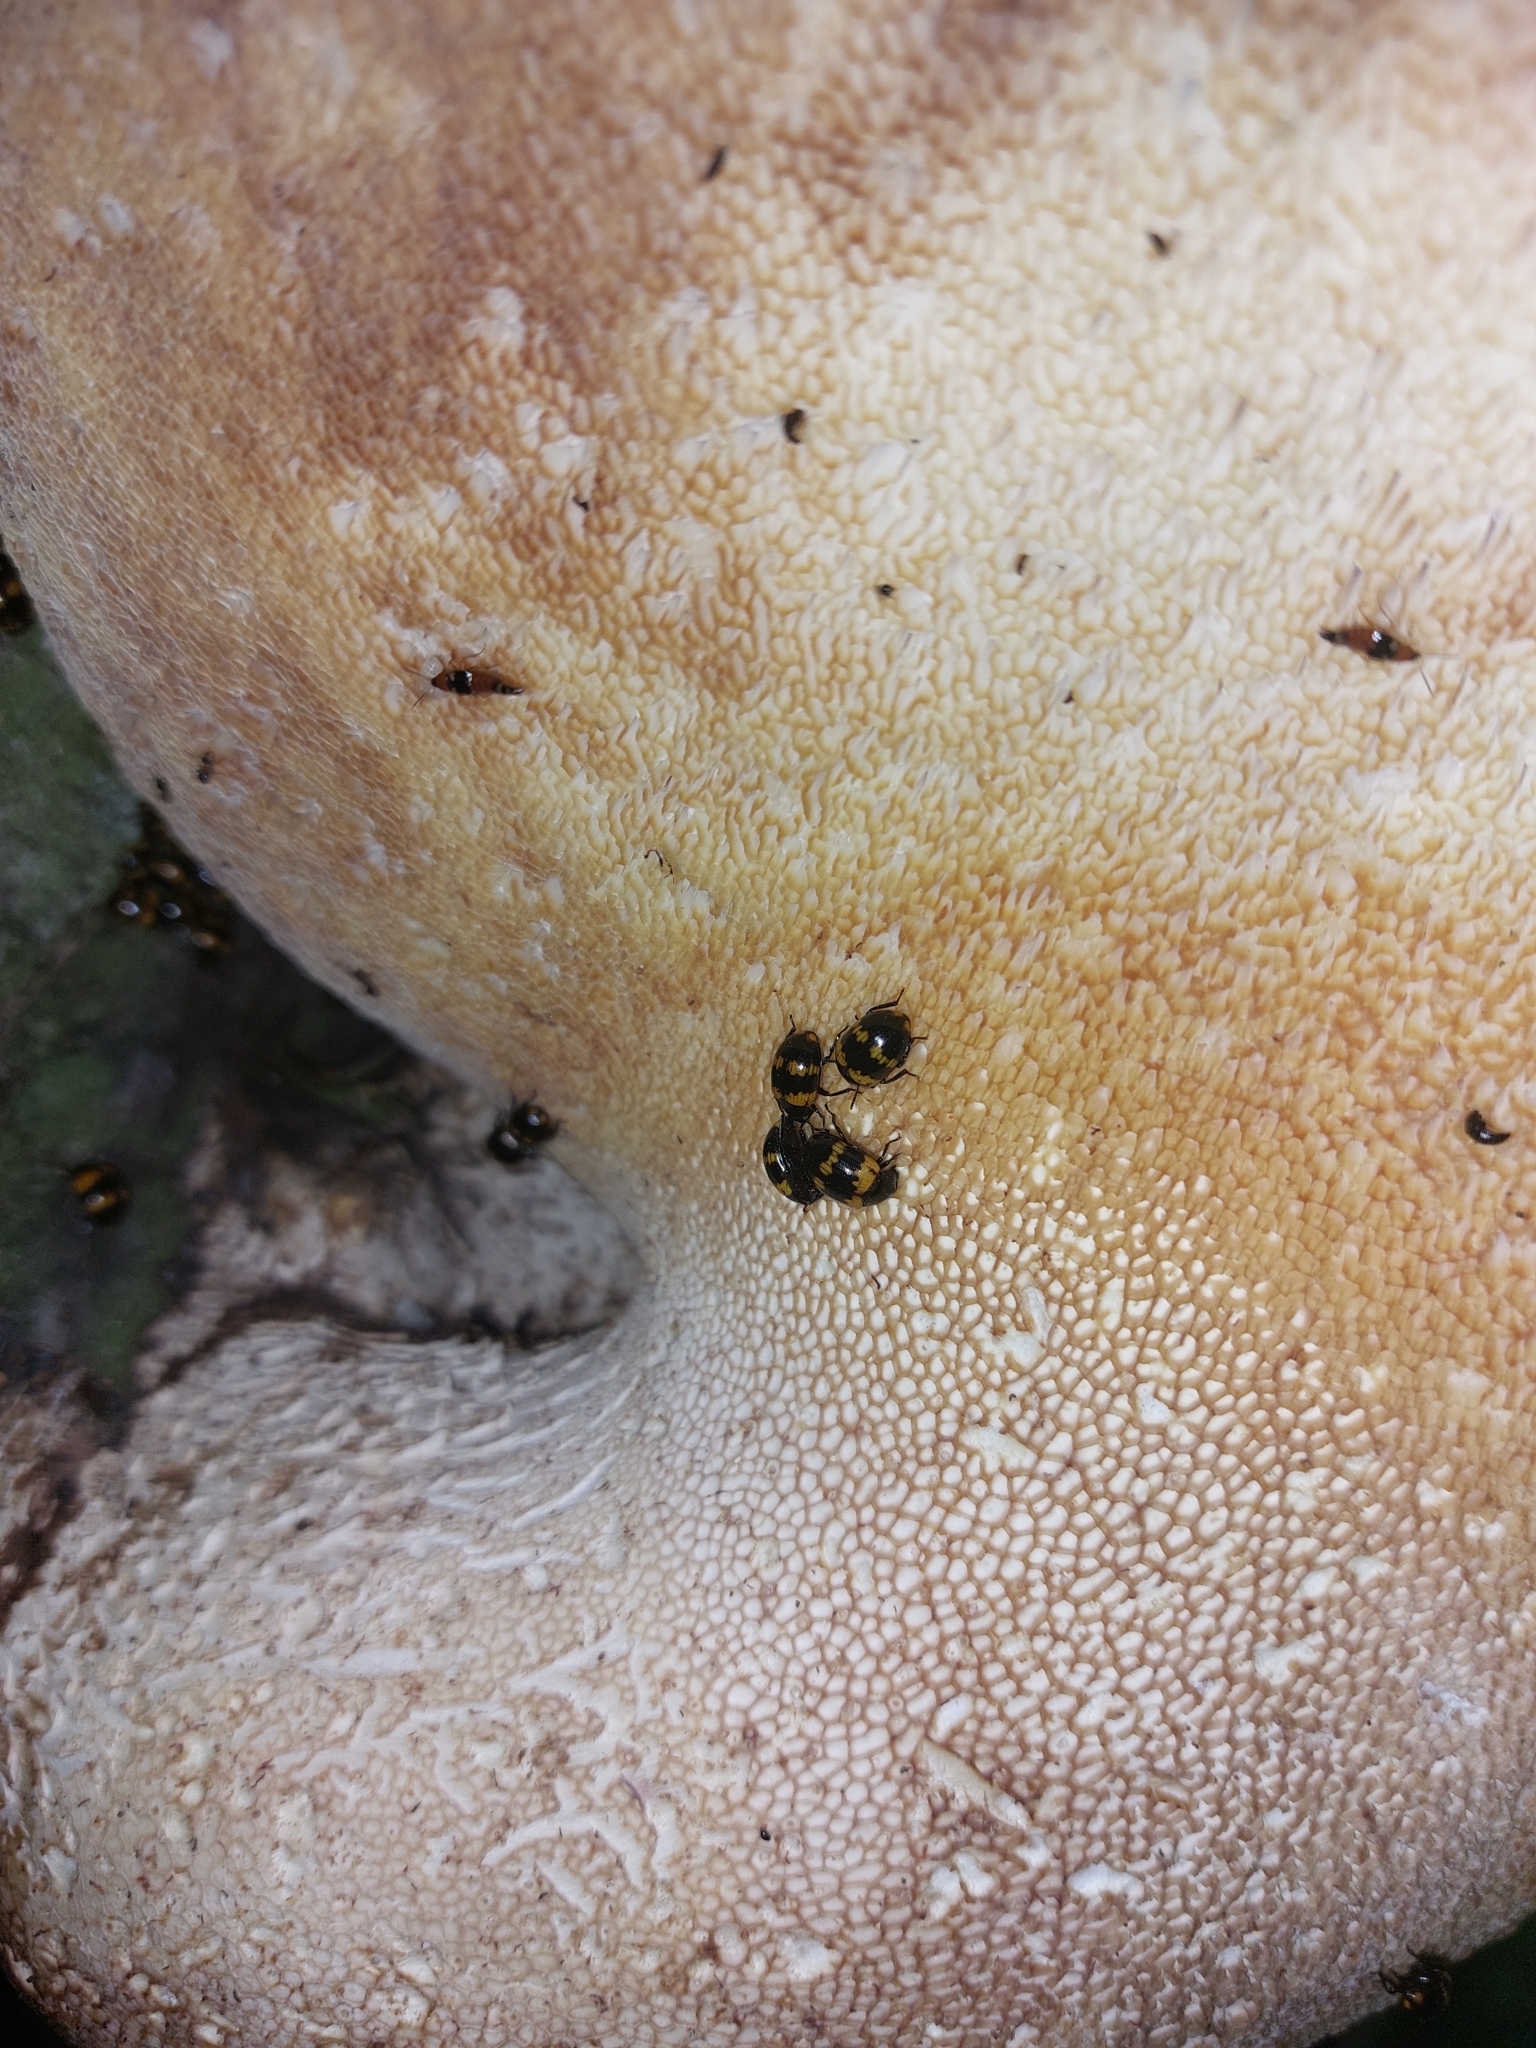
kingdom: Animalia
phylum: Arthropoda
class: Insecta
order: Coleoptera
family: Tenebrionidae
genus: Diaperis
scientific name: Diaperis boleti
